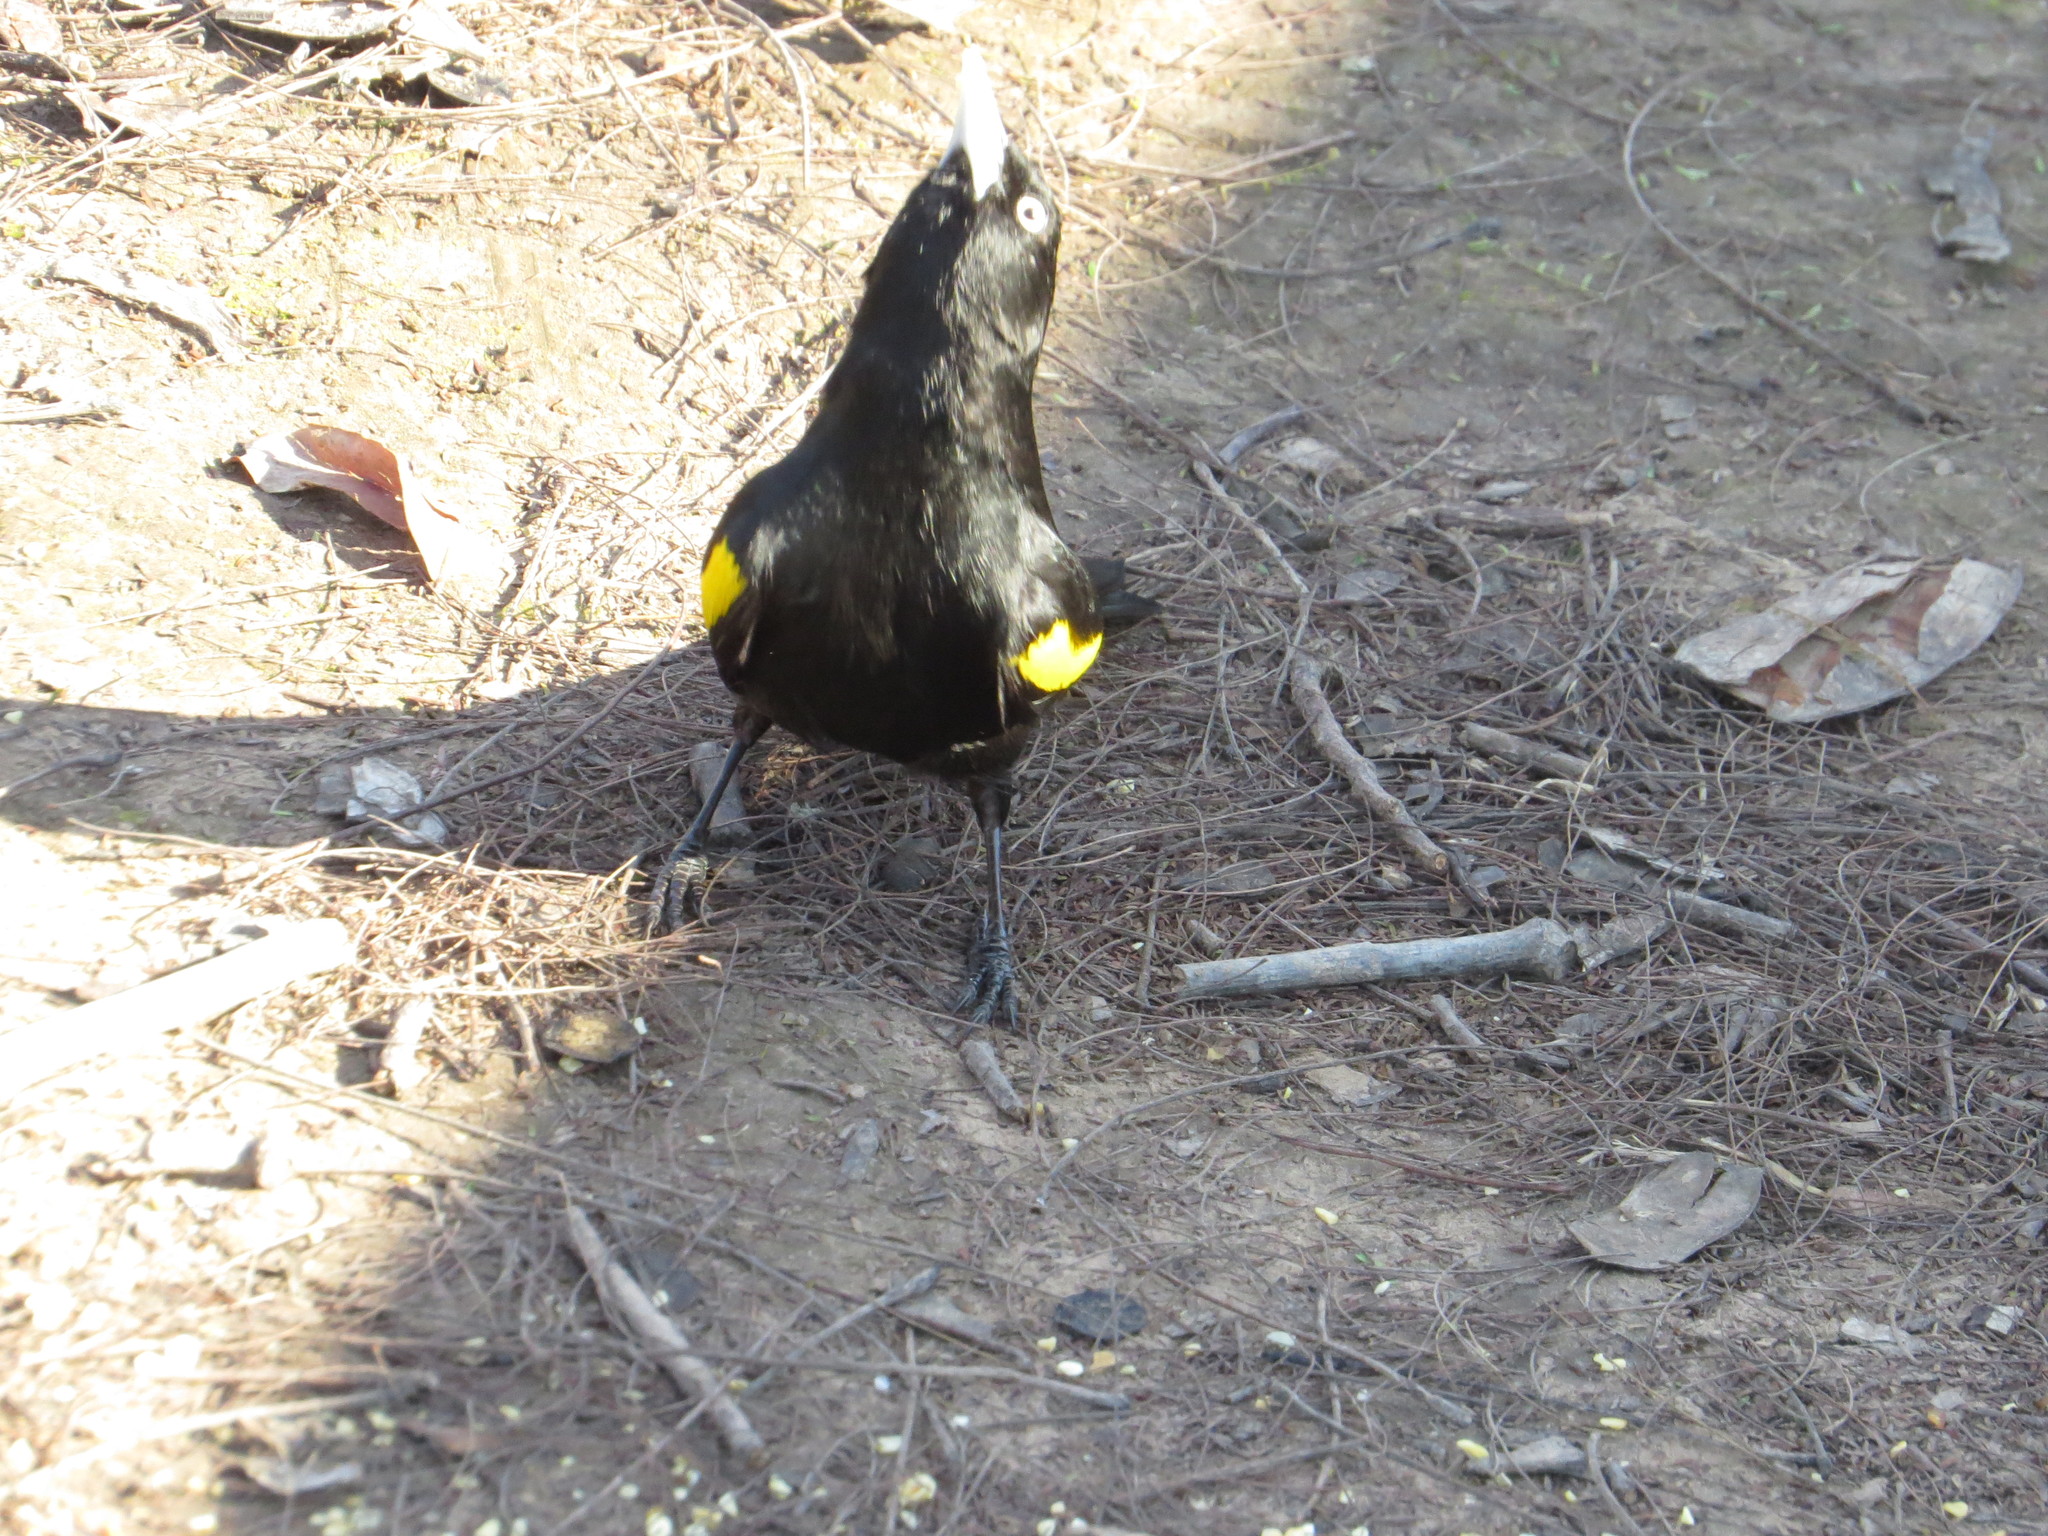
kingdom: Animalia
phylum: Chordata
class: Aves
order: Passeriformes
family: Icteridae
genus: Cacicus
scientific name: Cacicus chrysopterus
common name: Golden-winged cacique
